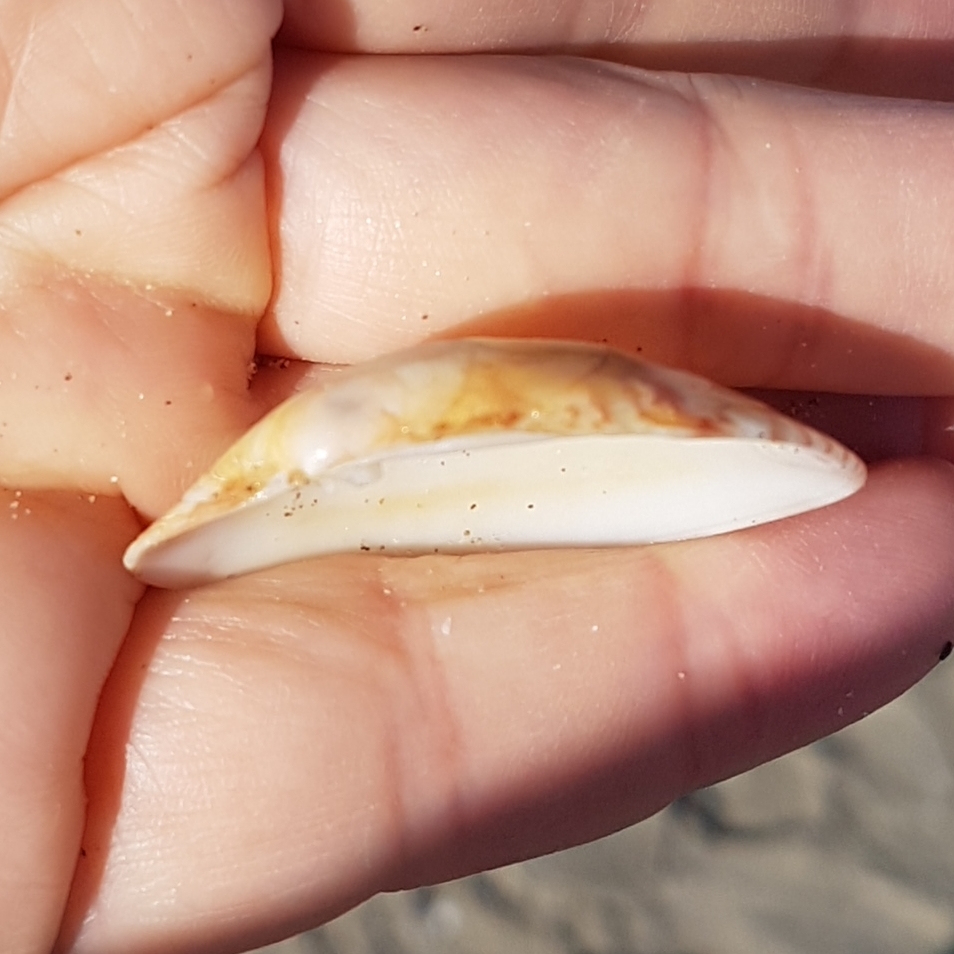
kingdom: Animalia
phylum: Mollusca
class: Bivalvia
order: Venerida
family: Veneridae
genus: Polititapes
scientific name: Polititapes aureus
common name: Golden carpet shell
